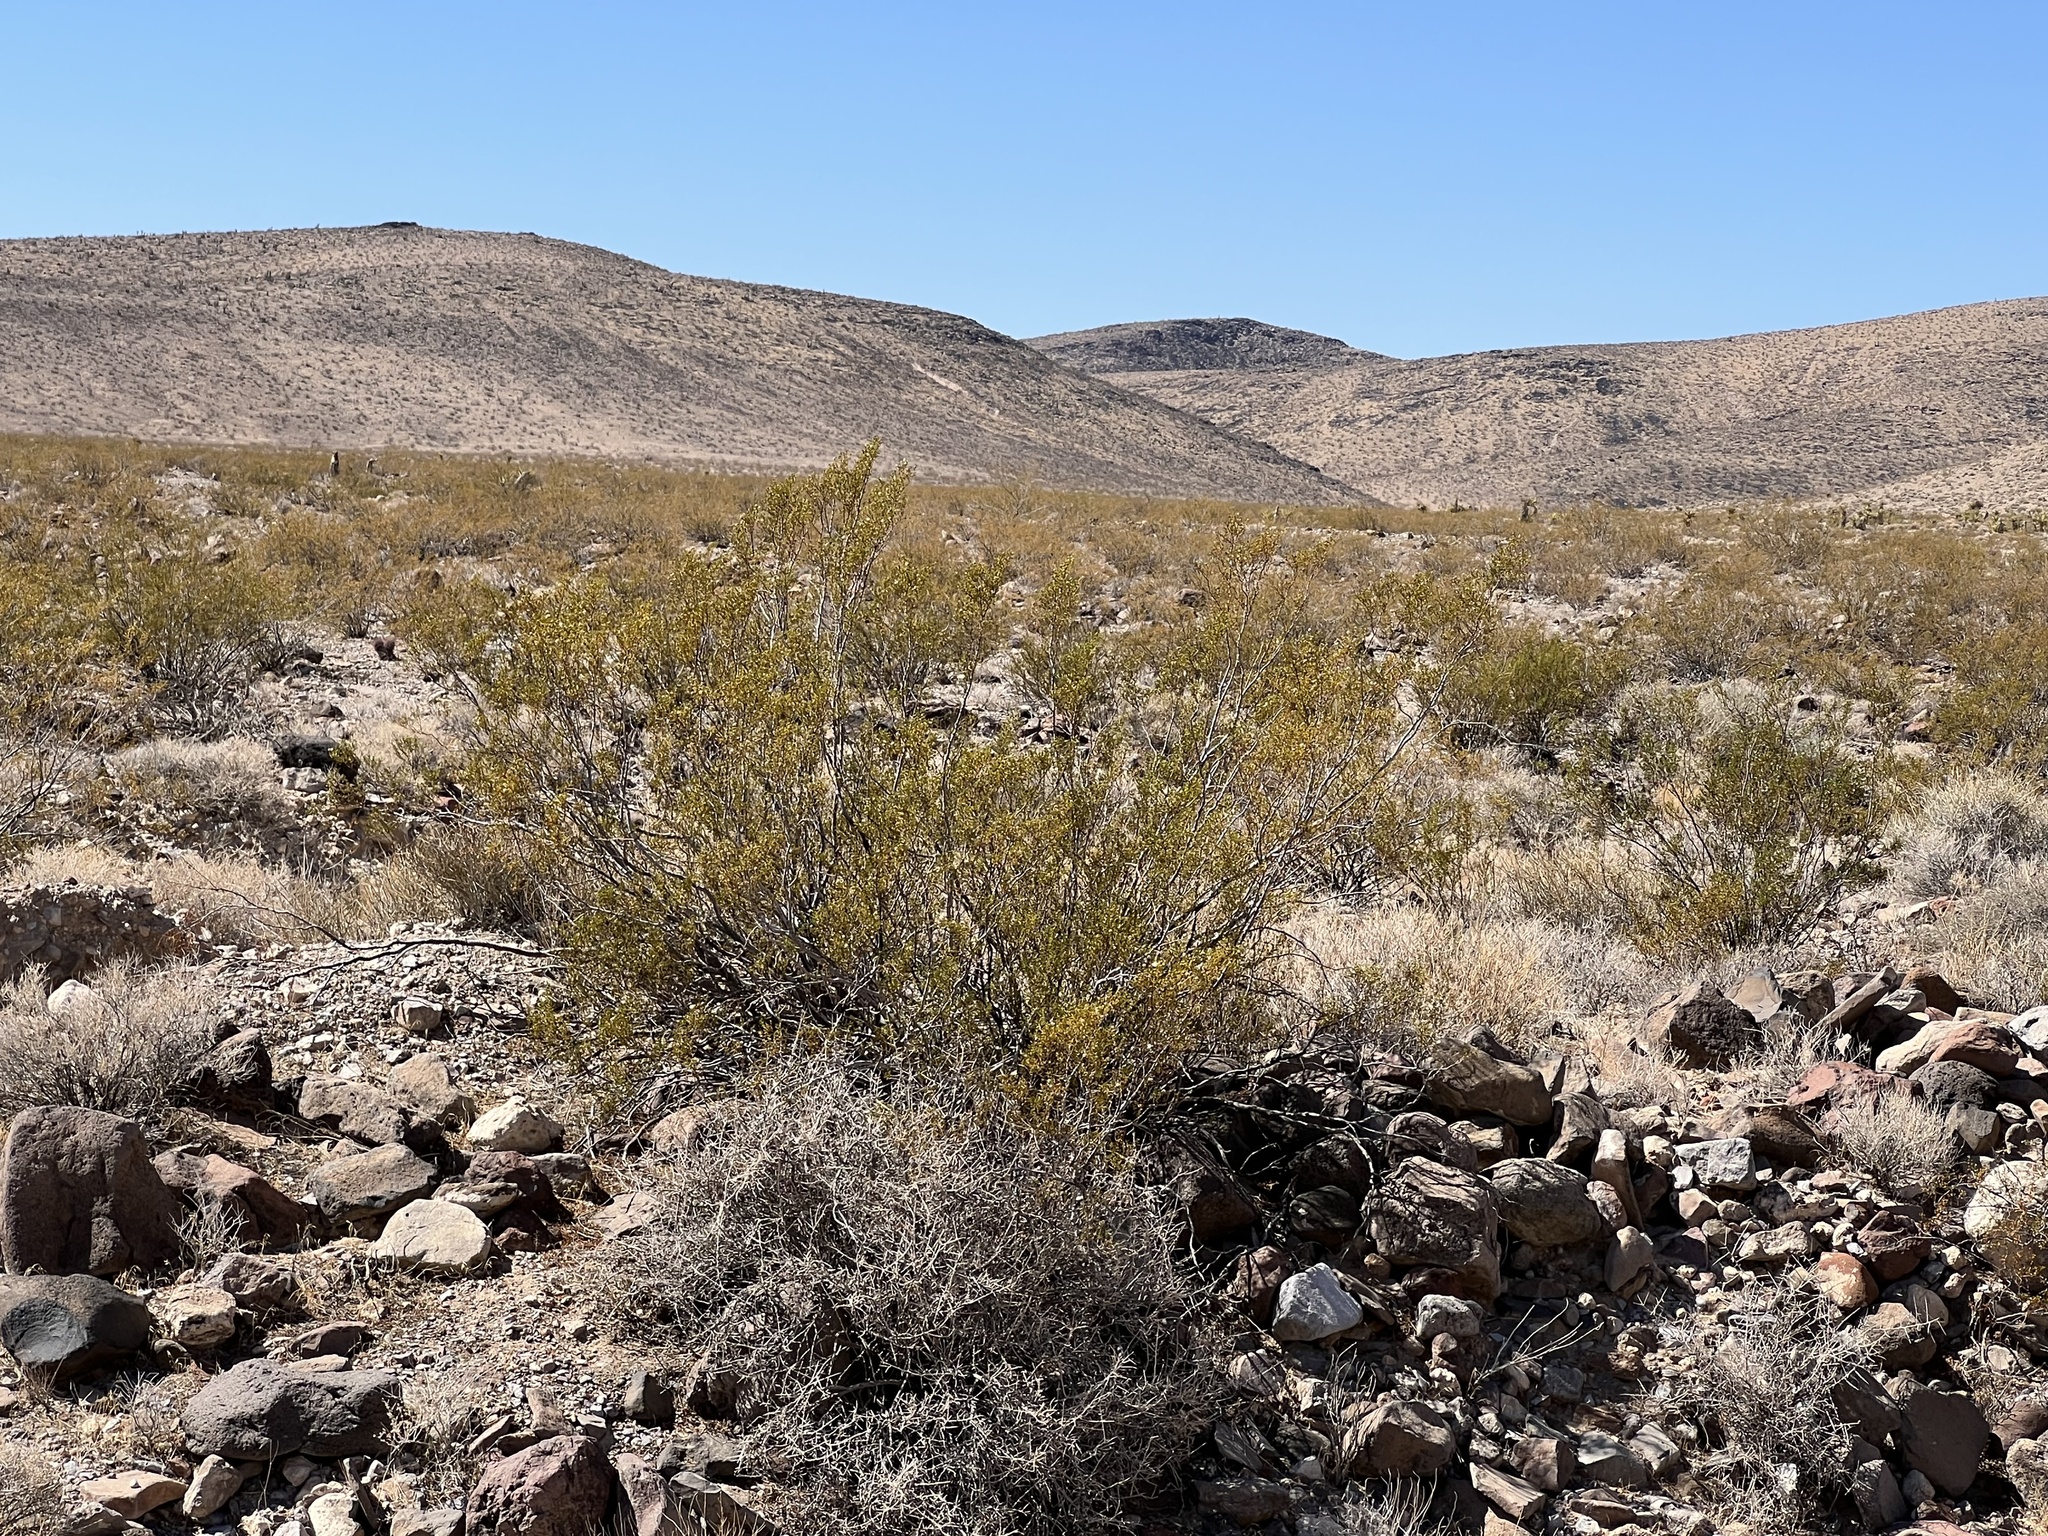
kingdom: Plantae
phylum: Tracheophyta
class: Magnoliopsida
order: Zygophyllales
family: Zygophyllaceae
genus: Larrea
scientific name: Larrea tridentata
